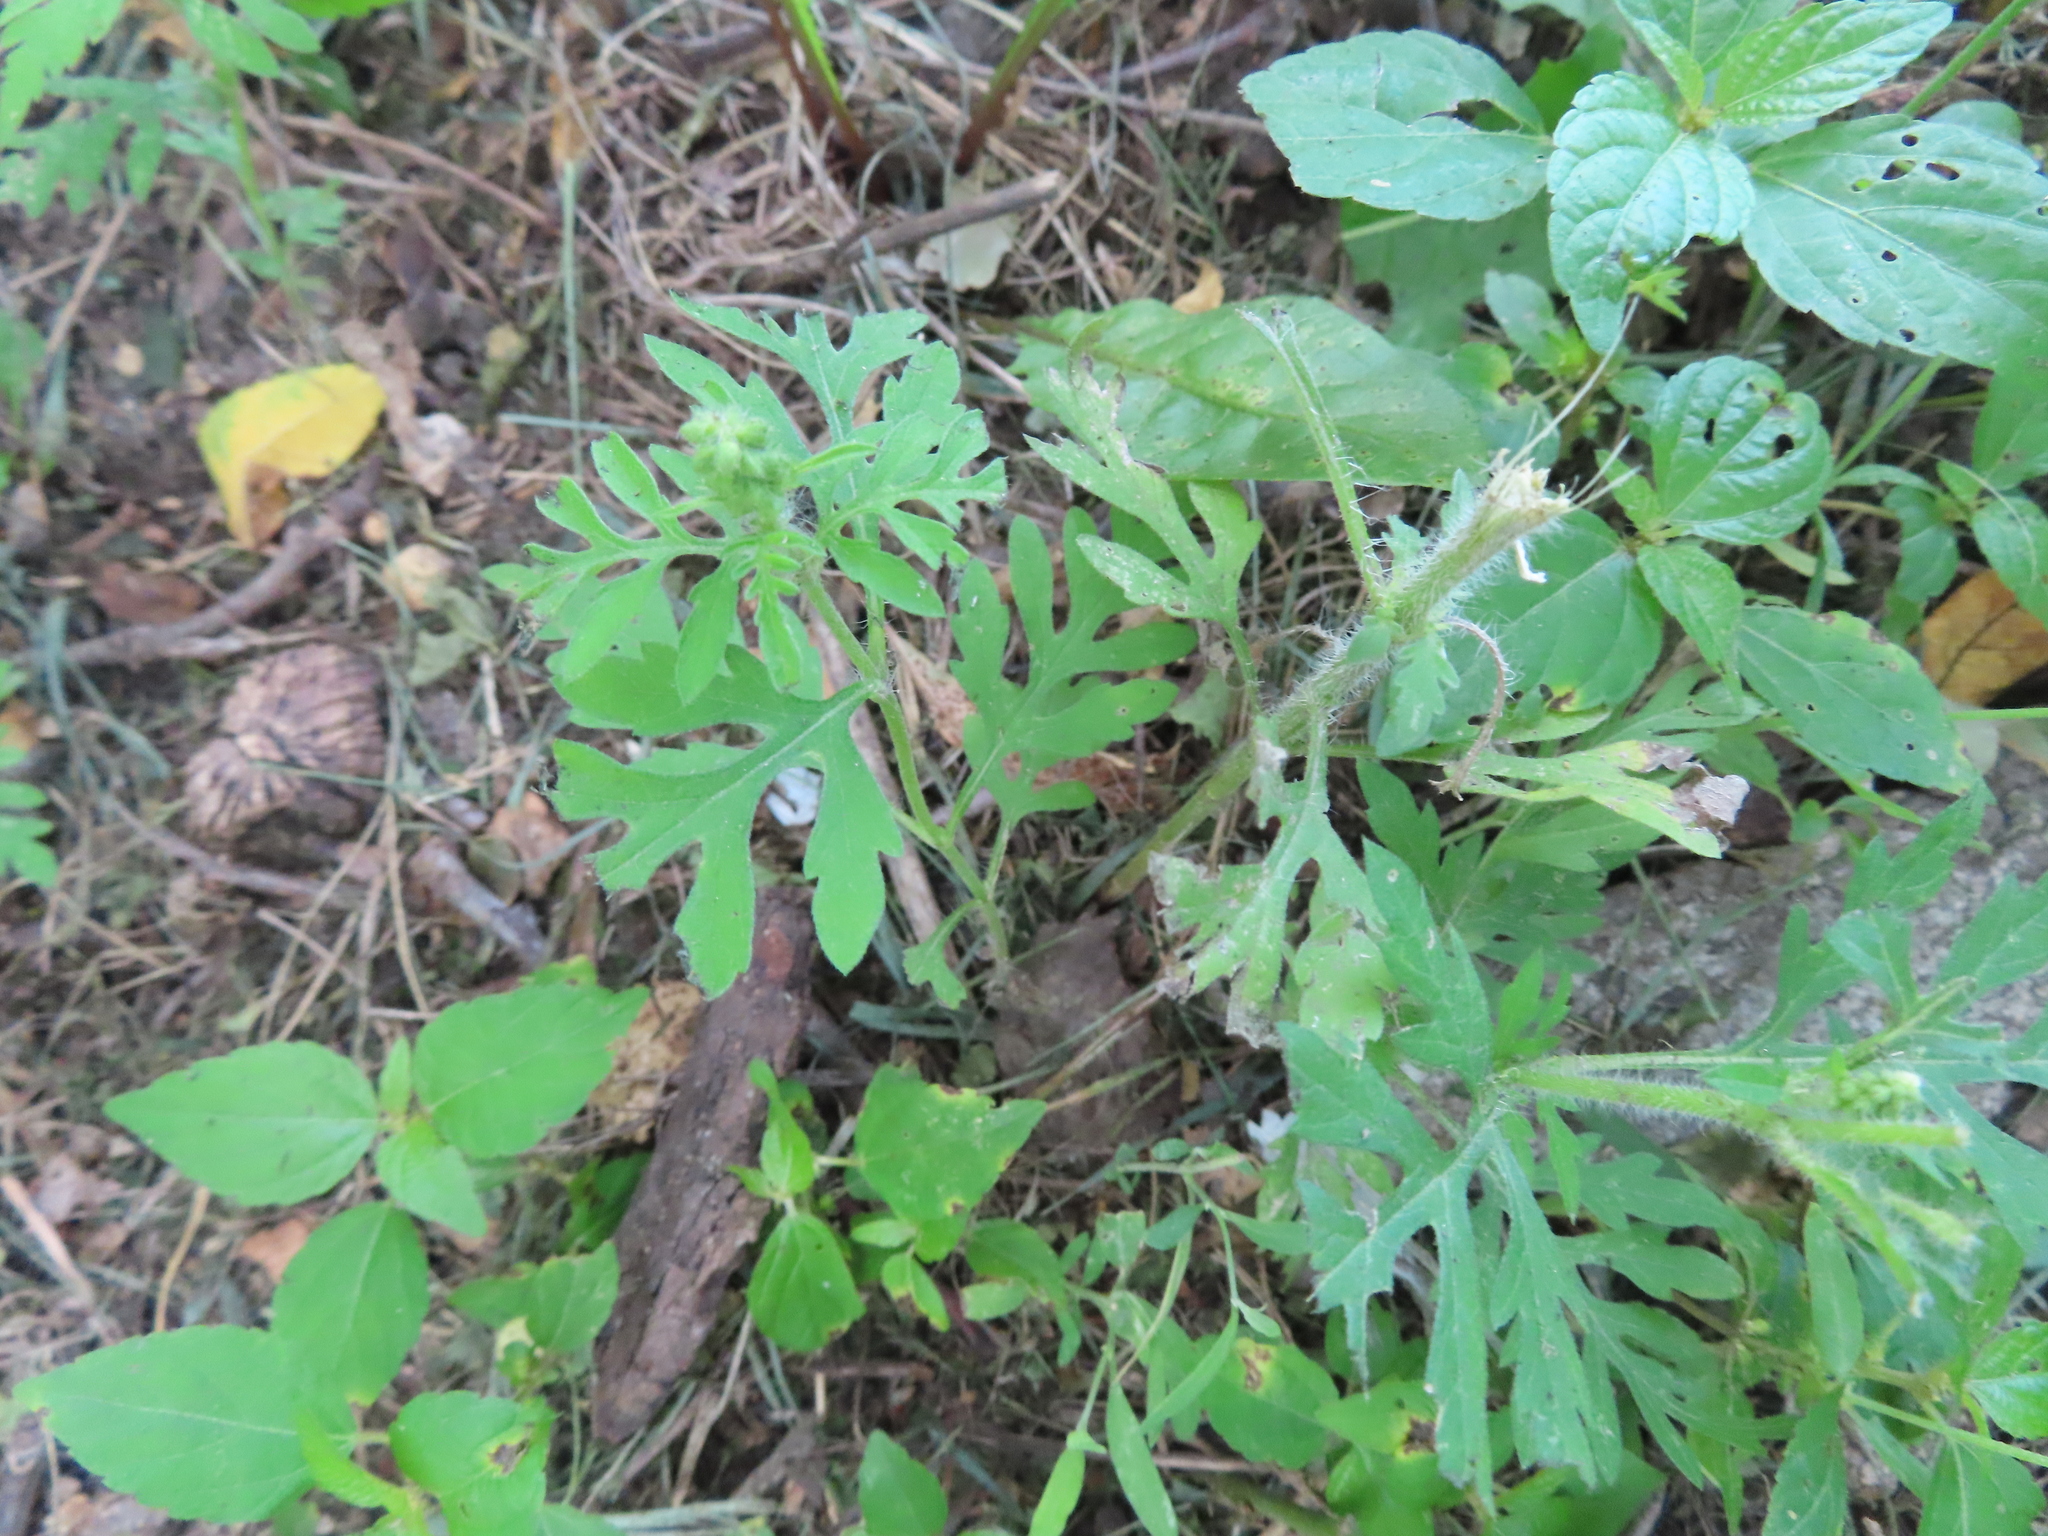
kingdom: Plantae
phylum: Tracheophyta
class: Magnoliopsida
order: Asterales
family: Asteraceae
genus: Ambrosia
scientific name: Ambrosia artemisiifolia
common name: Annual ragweed
